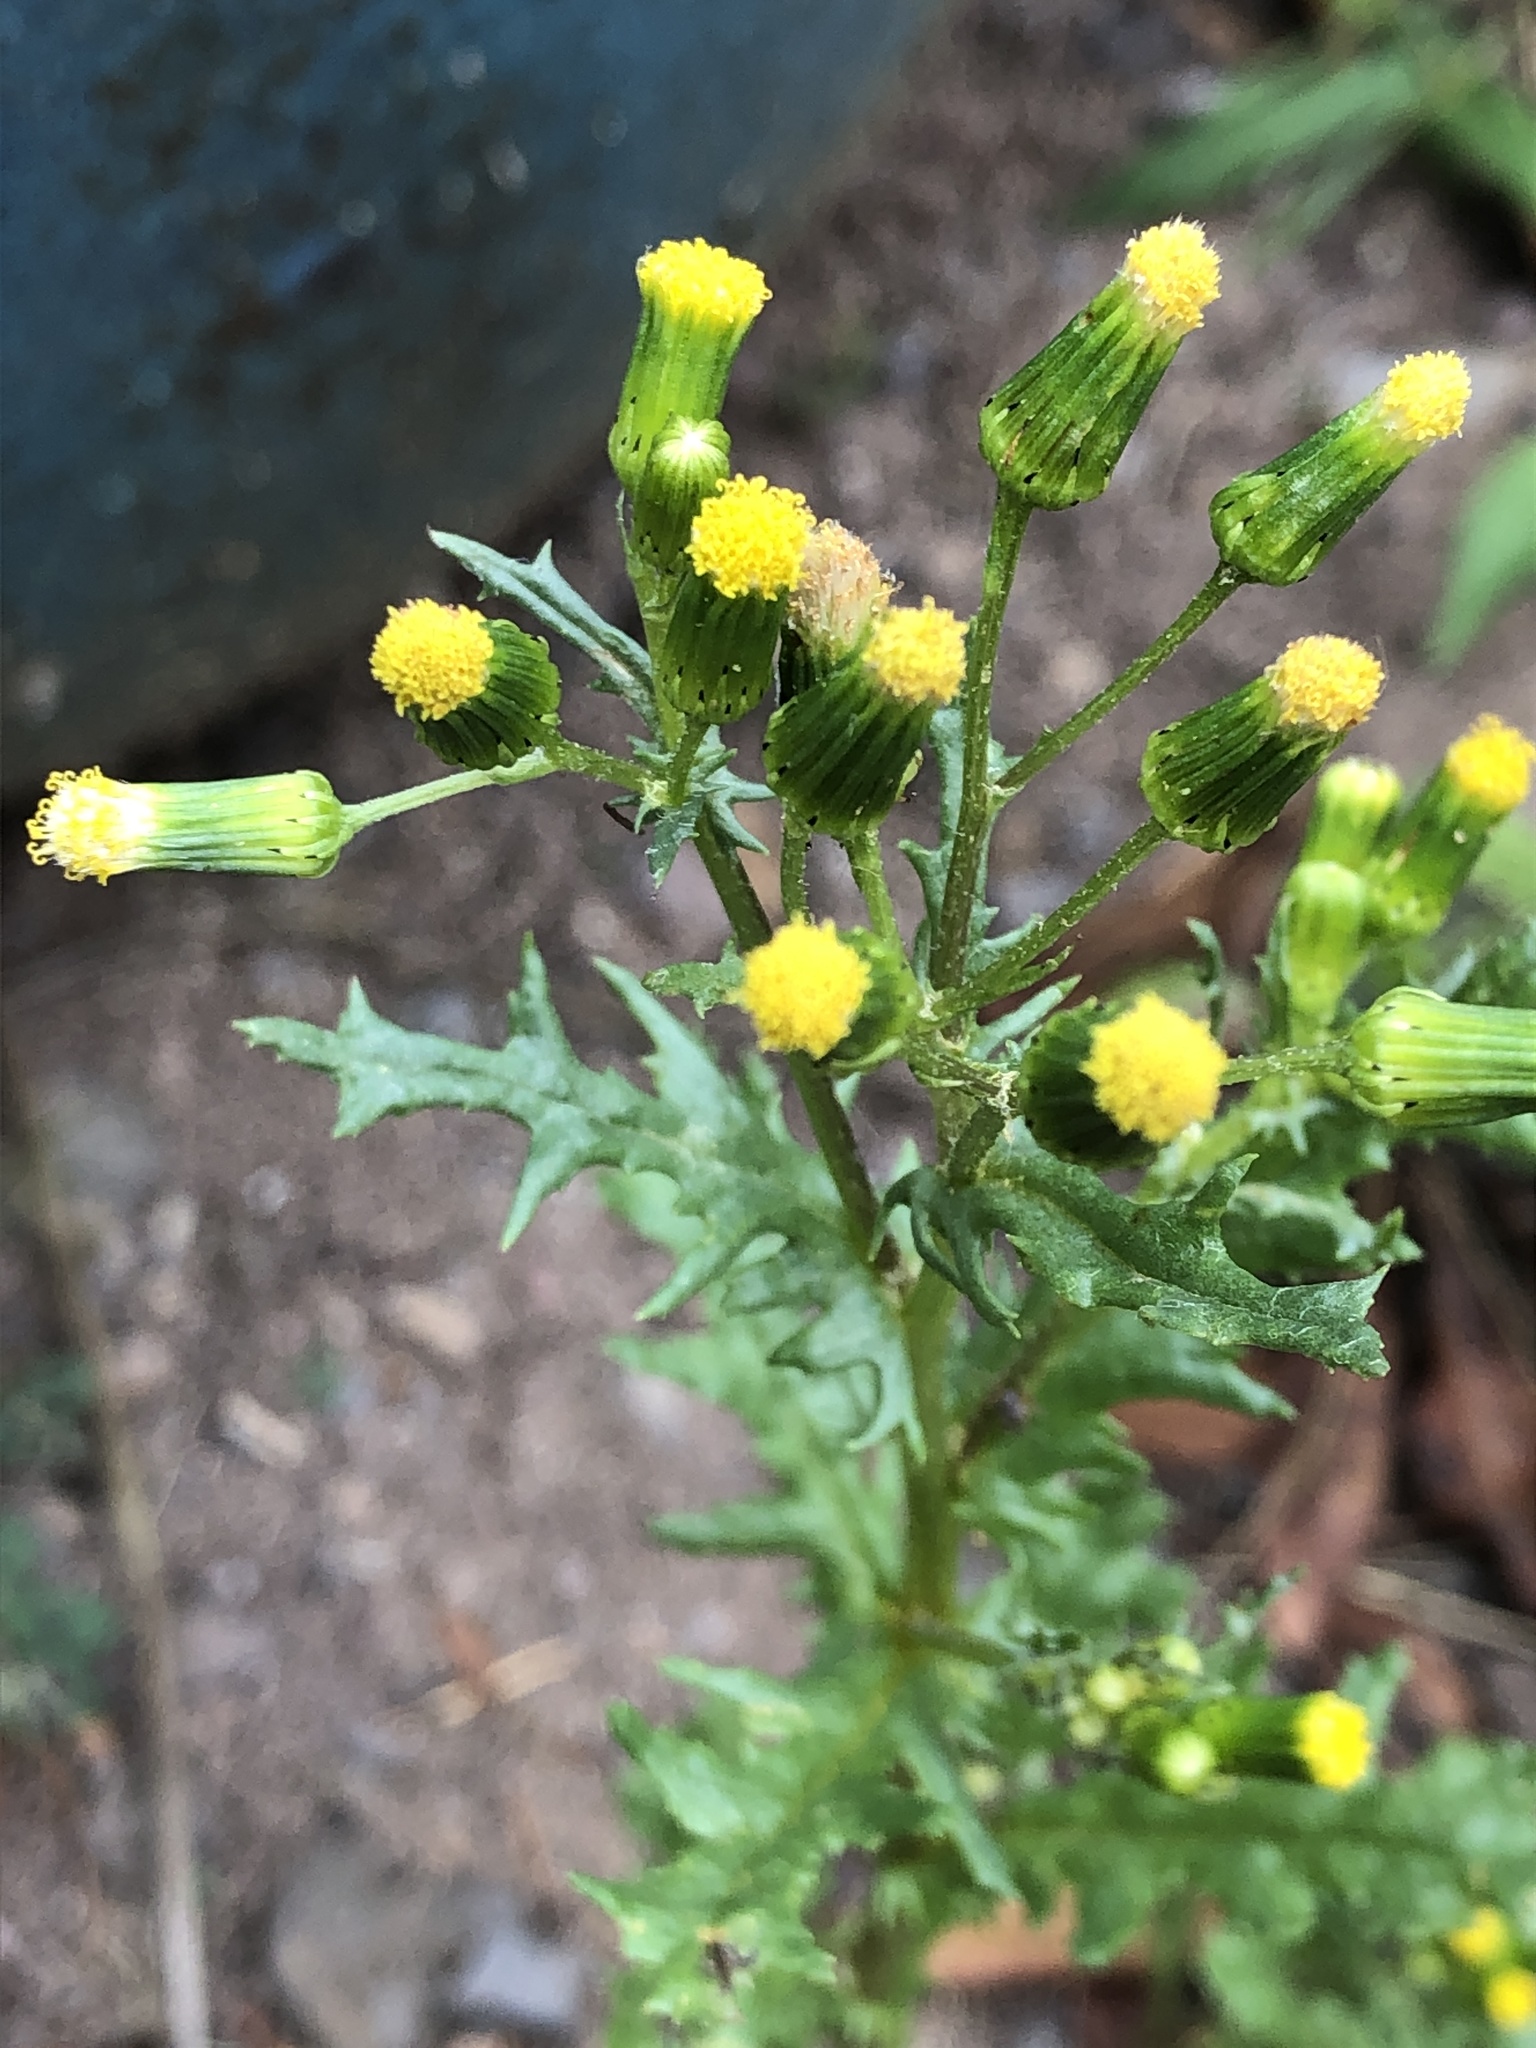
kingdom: Plantae
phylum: Tracheophyta
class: Magnoliopsida
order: Asterales
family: Asteraceae
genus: Senecio
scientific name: Senecio vulgaris
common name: Old-man-in-the-spring
